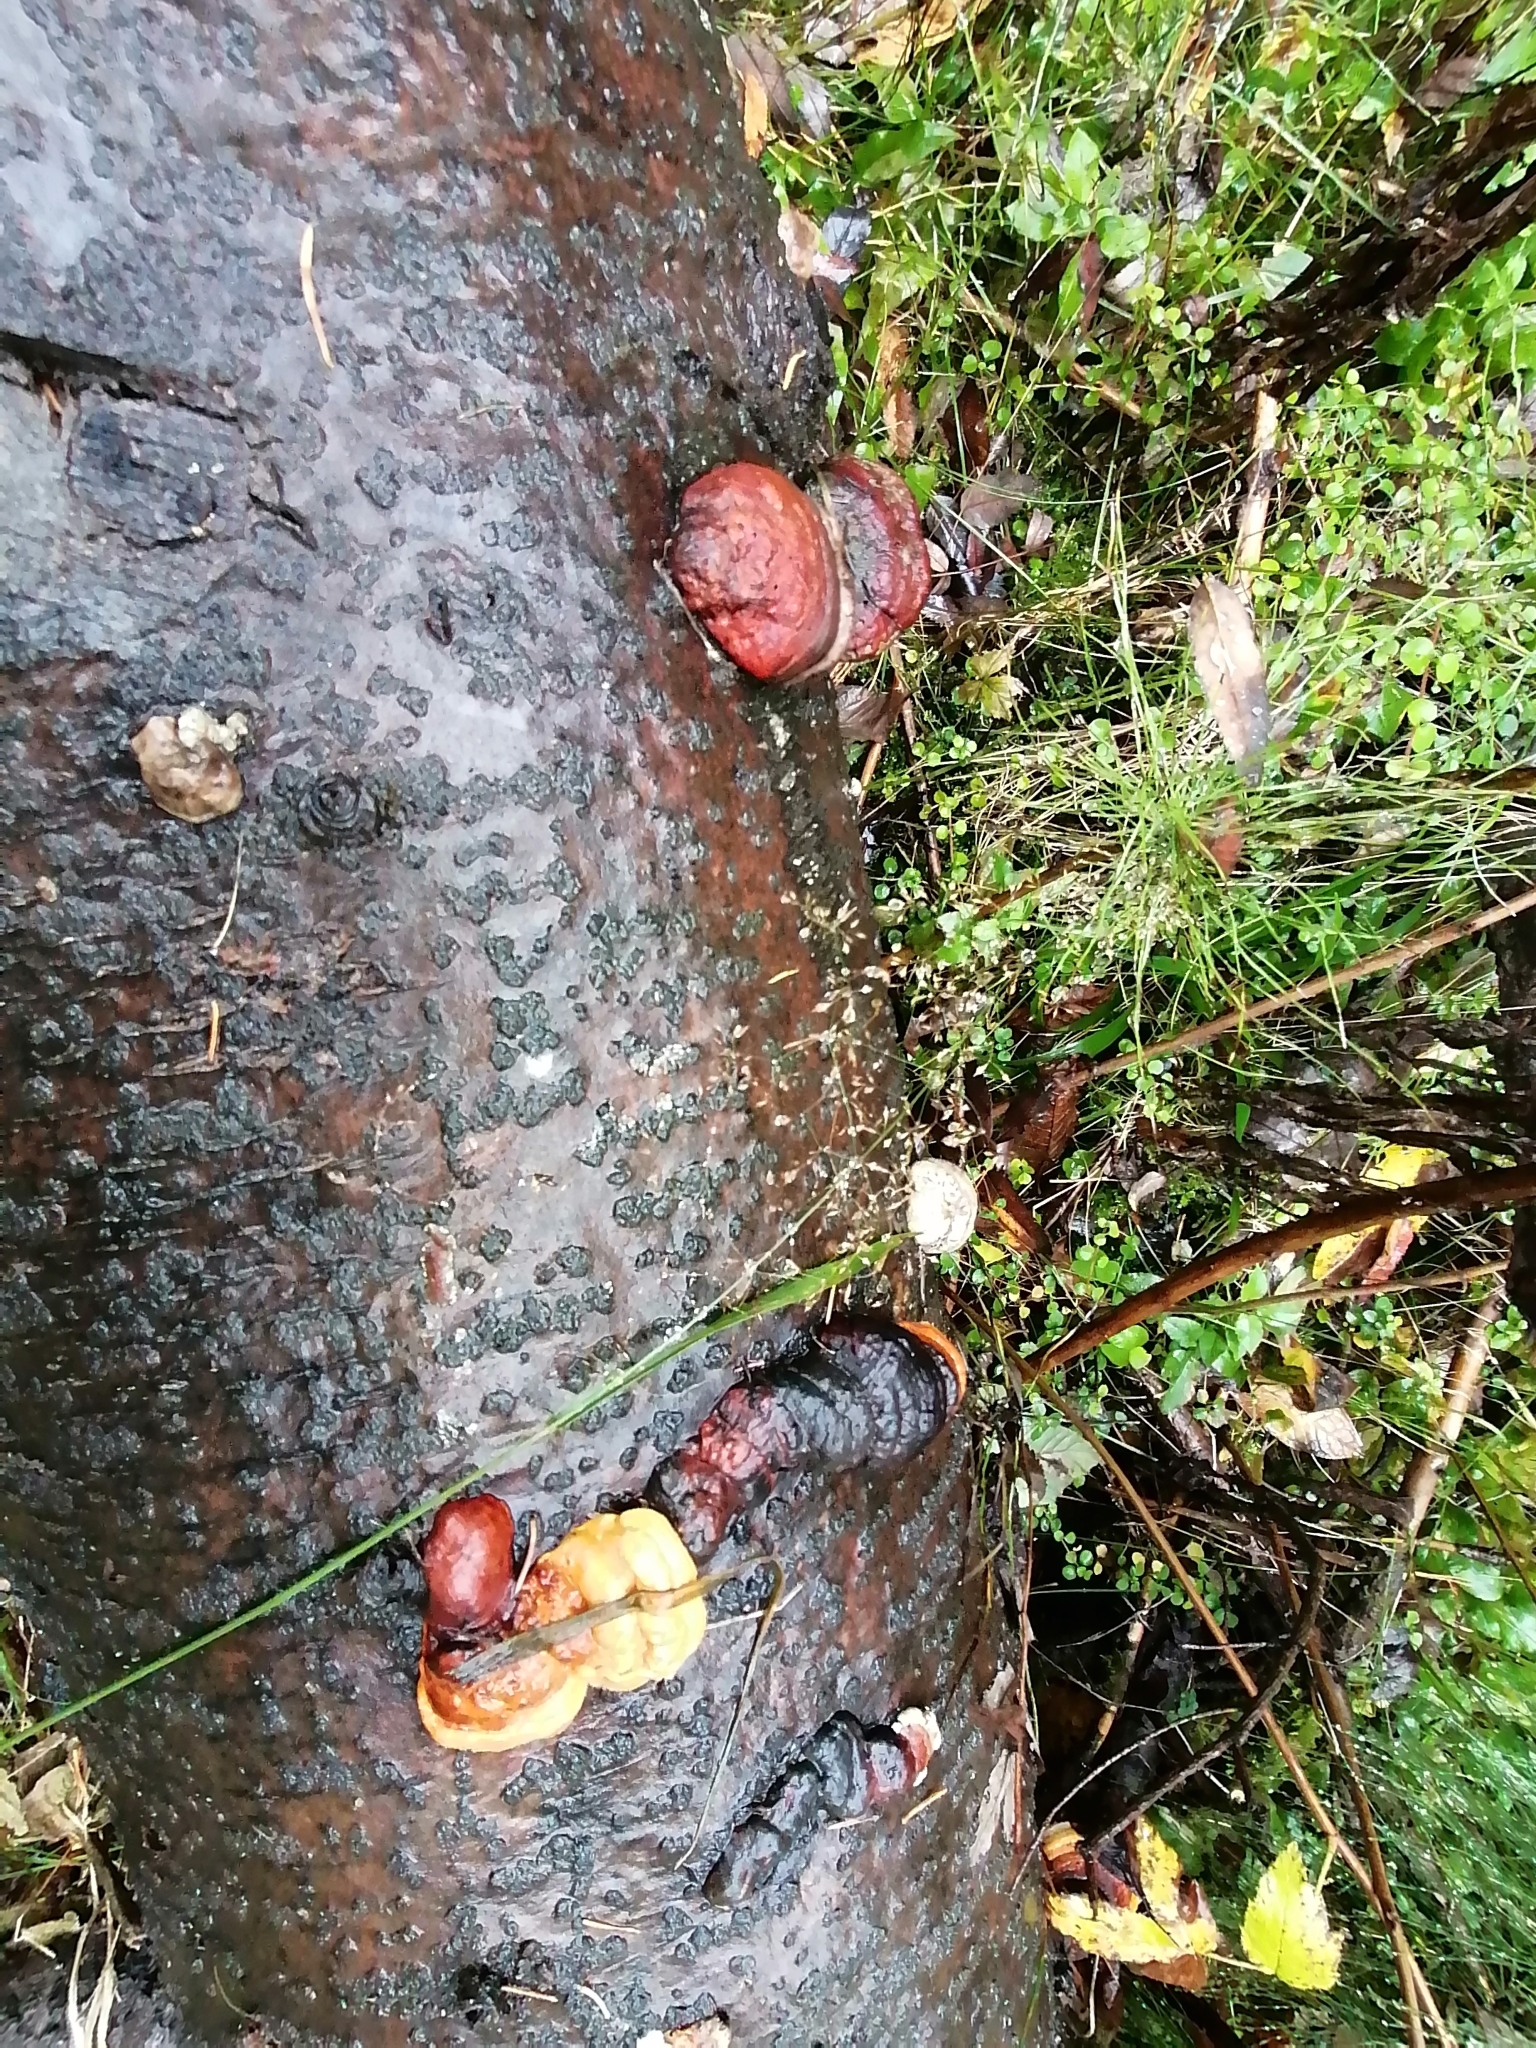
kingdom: Fungi
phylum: Basidiomycota
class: Agaricomycetes
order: Polyporales
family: Fomitopsidaceae
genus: Fomitopsis
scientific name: Fomitopsis pinicola
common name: Red-belted bracket
